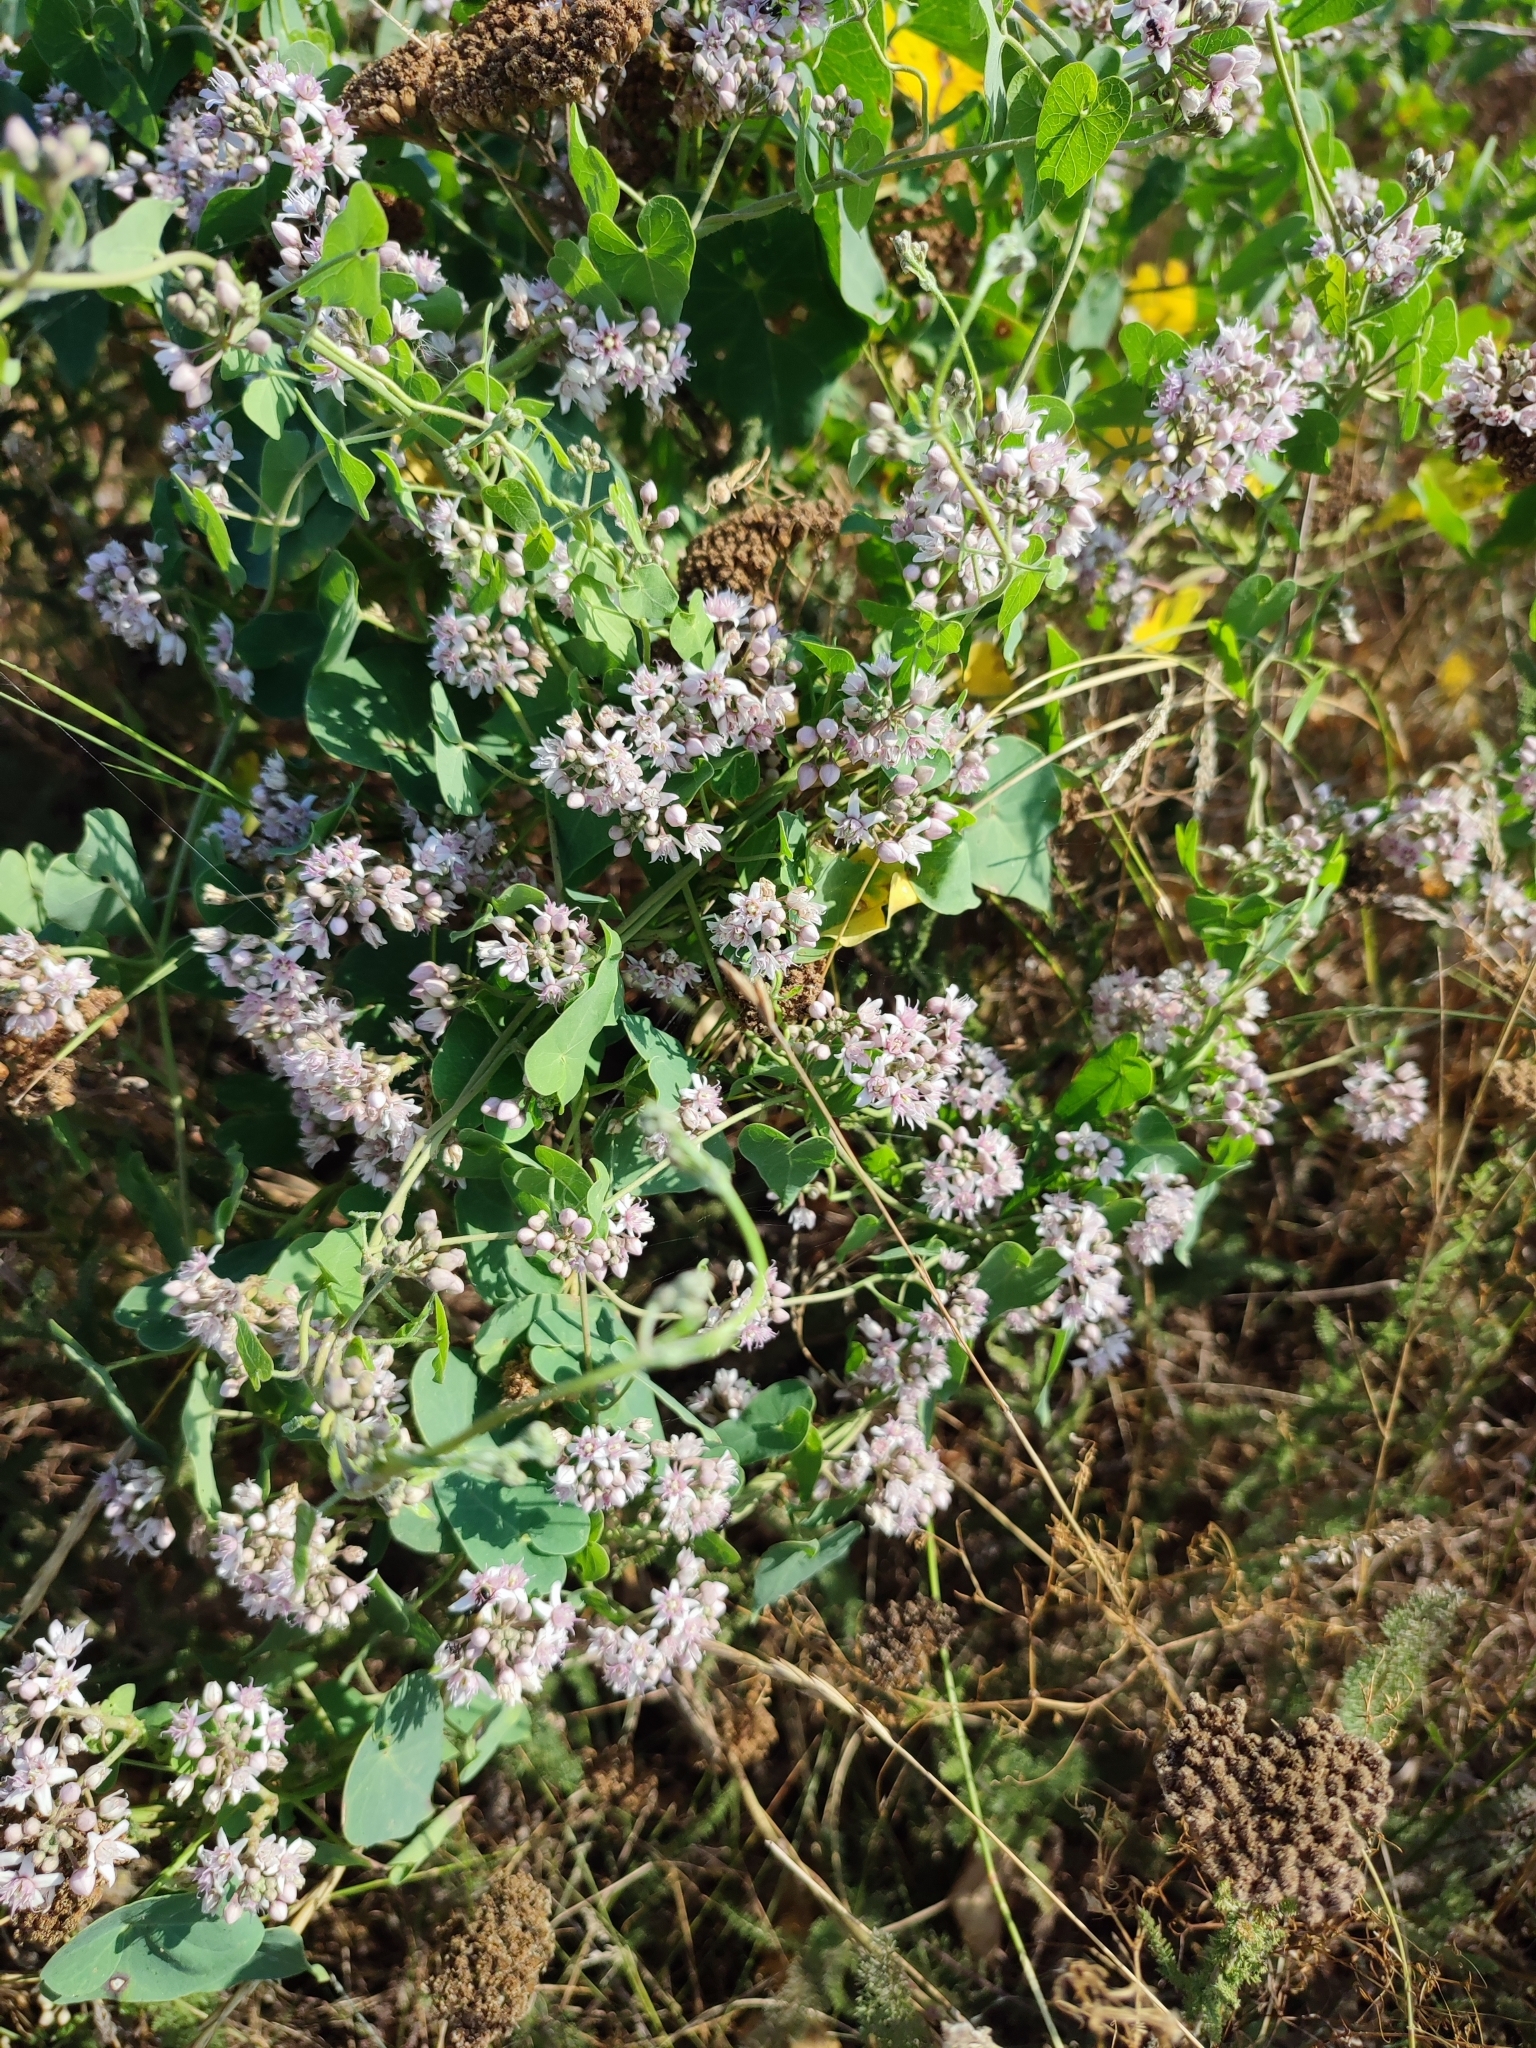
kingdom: Plantae
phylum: Tracheophyta
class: Magnoliopsida
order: Gentianales
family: Apocynaceae
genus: Cynanchum
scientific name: Cynanchum acutum
